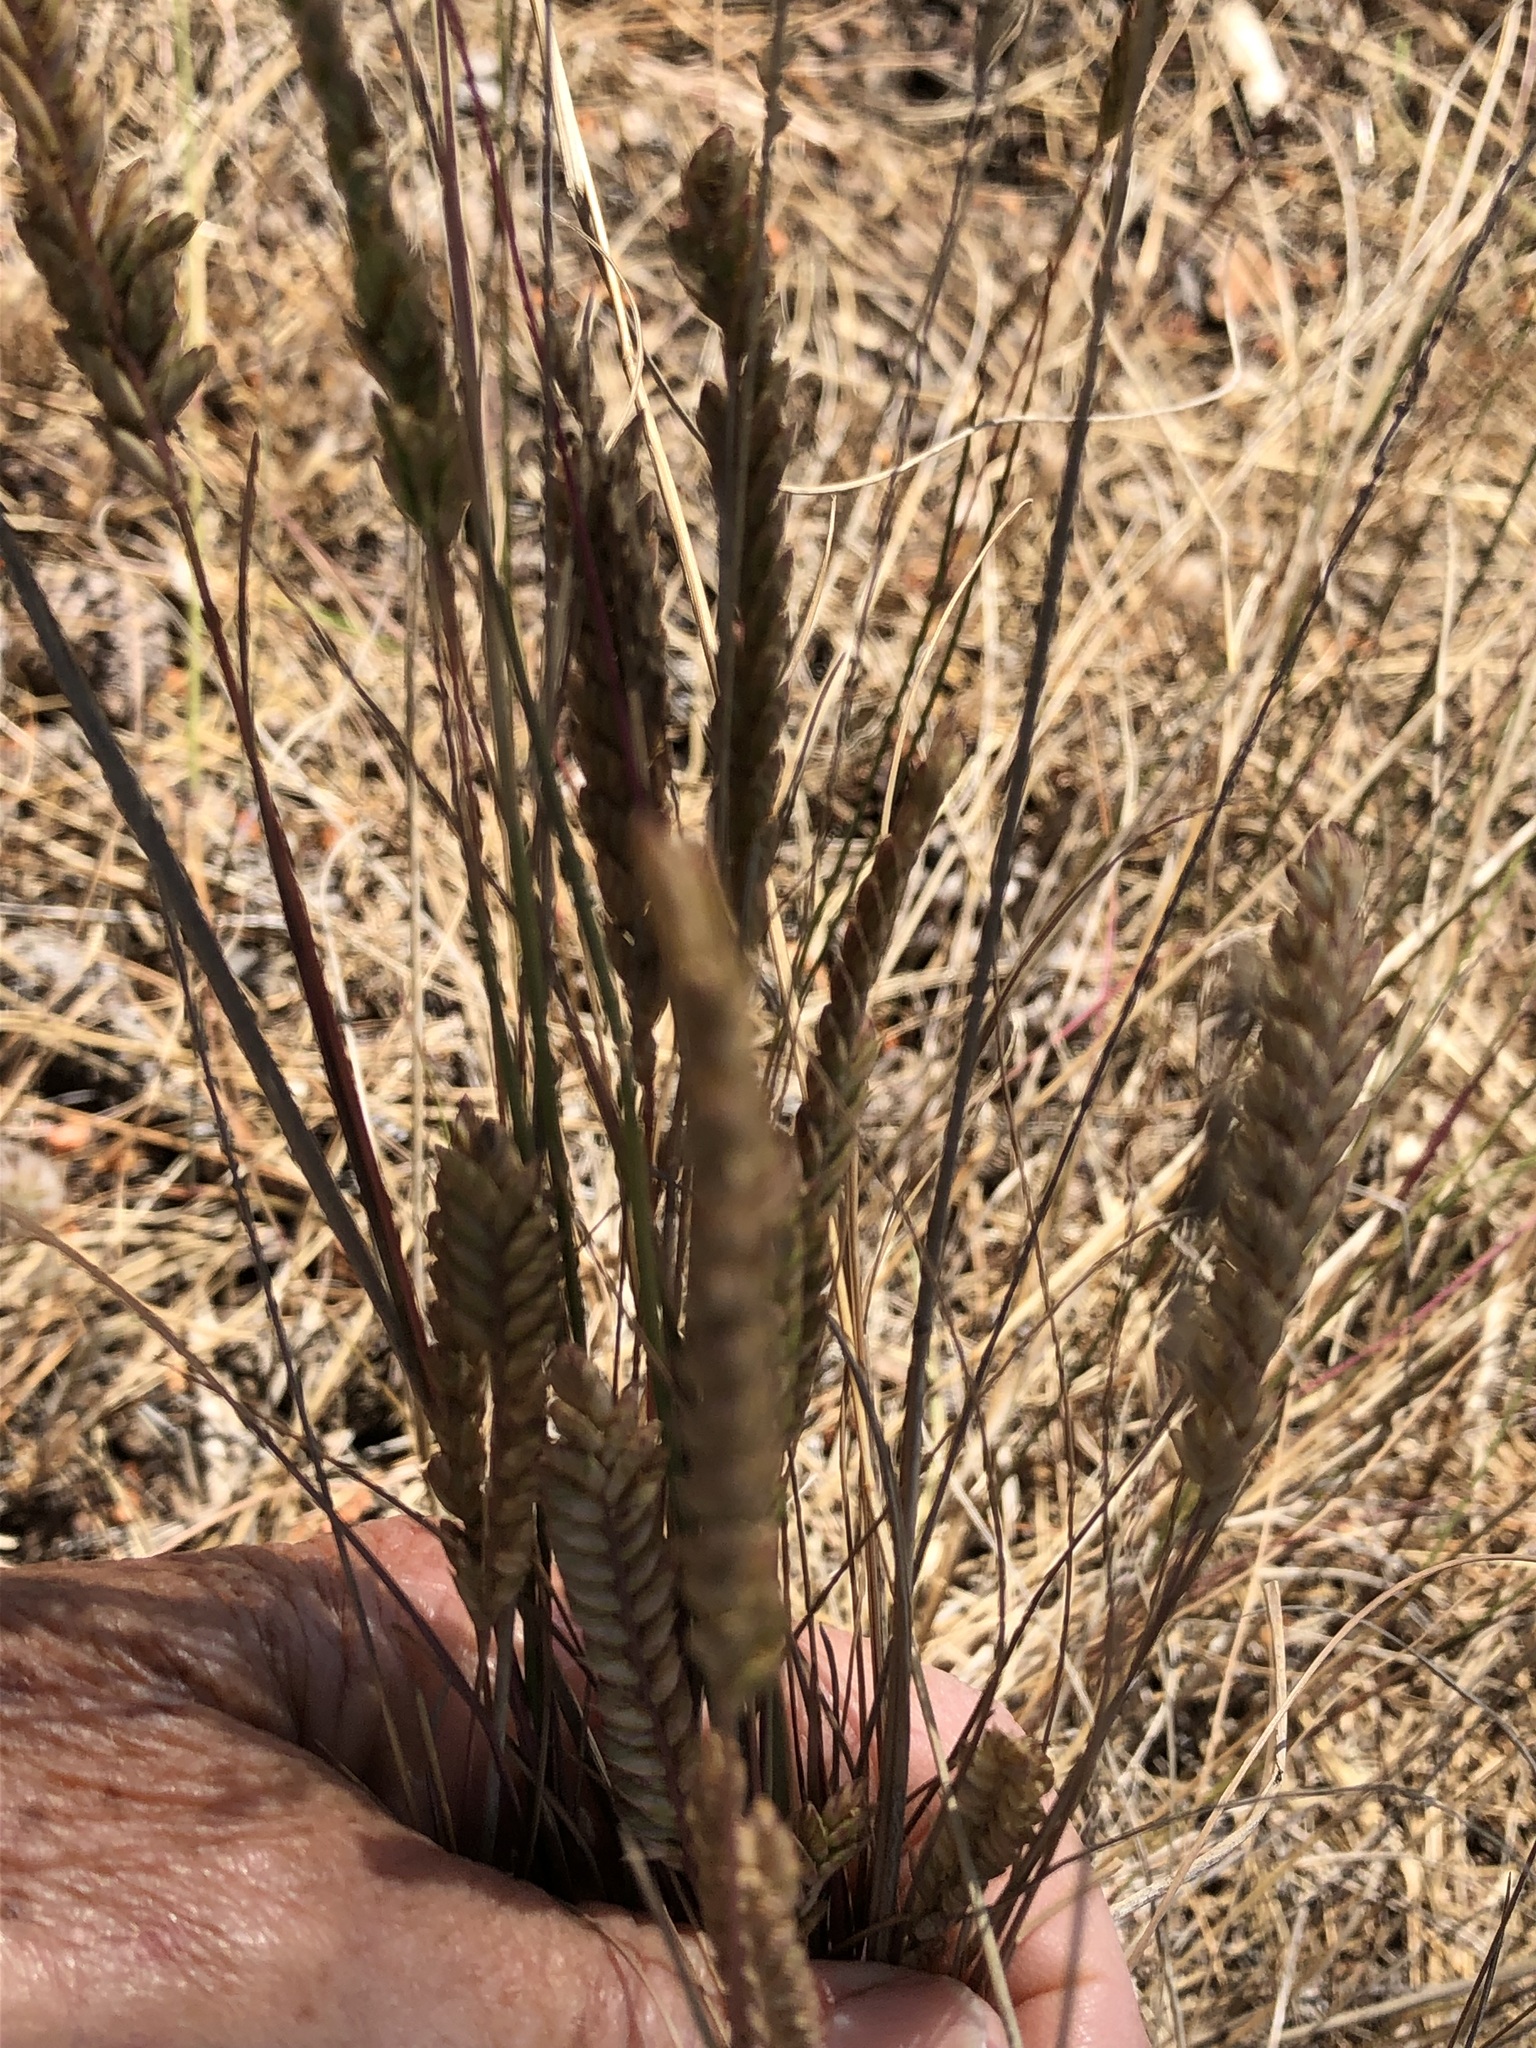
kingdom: Plantae
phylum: Tracheophyta
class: Liliopsida
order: Poales
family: Poaceae
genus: Tribolium
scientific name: Tribolium uniolae
